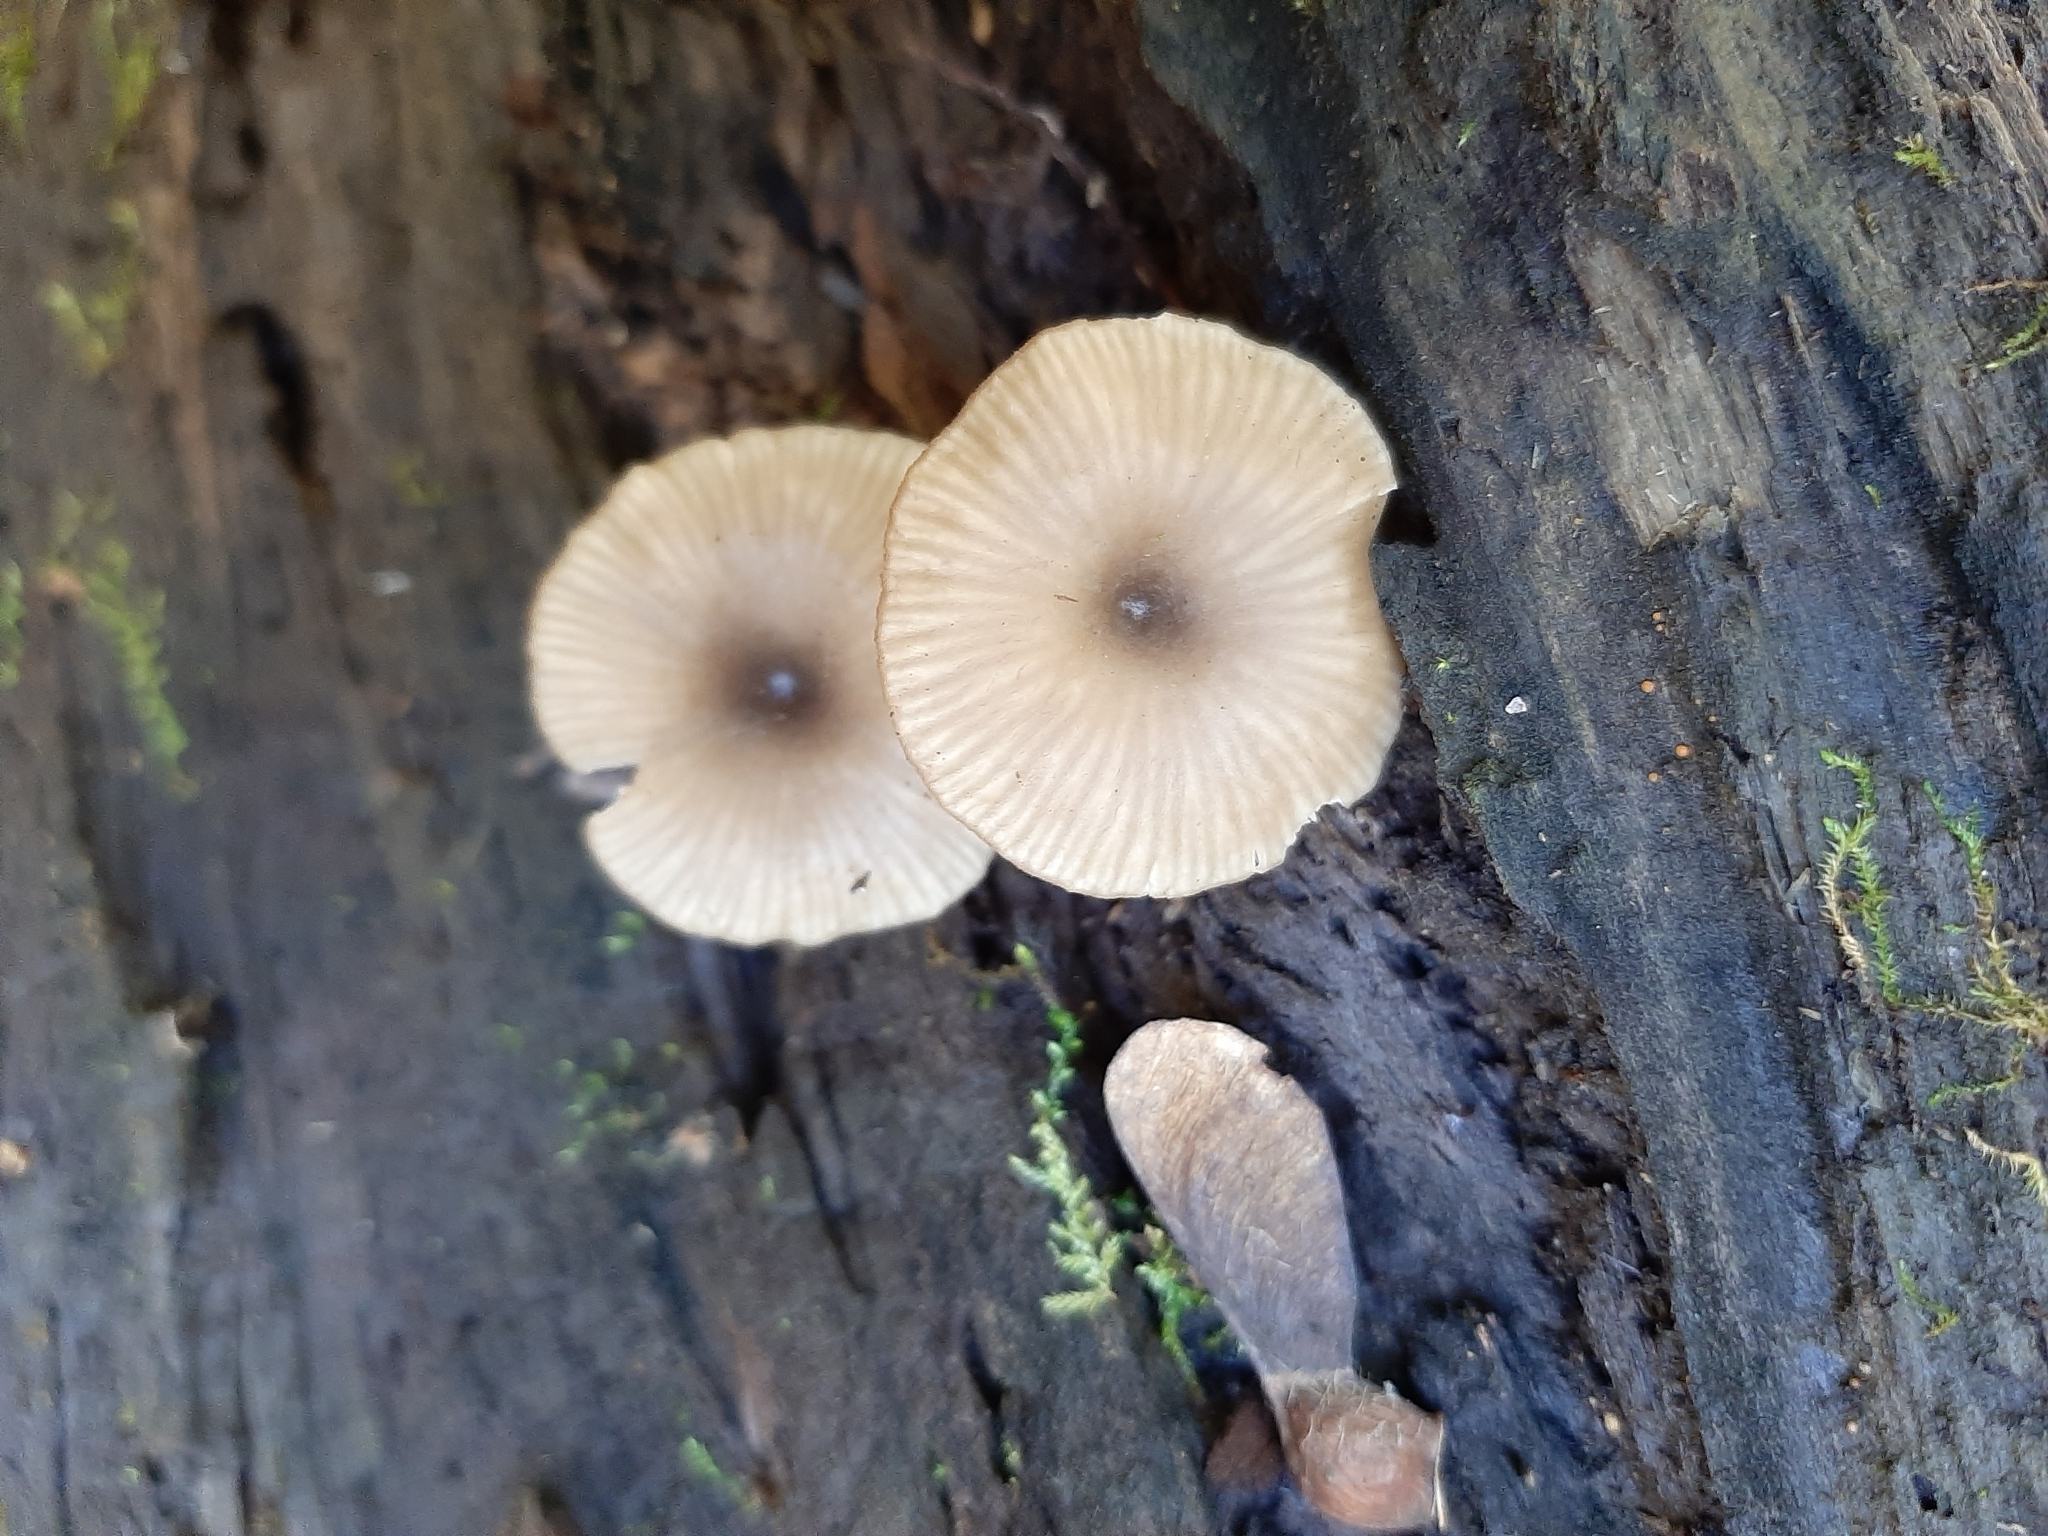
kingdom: Fungi
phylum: Basidiomycota
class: Agaricomycetes
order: Agaricales
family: Hygrophoraceae
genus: Arrhenia
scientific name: Arrhenia epichysium
